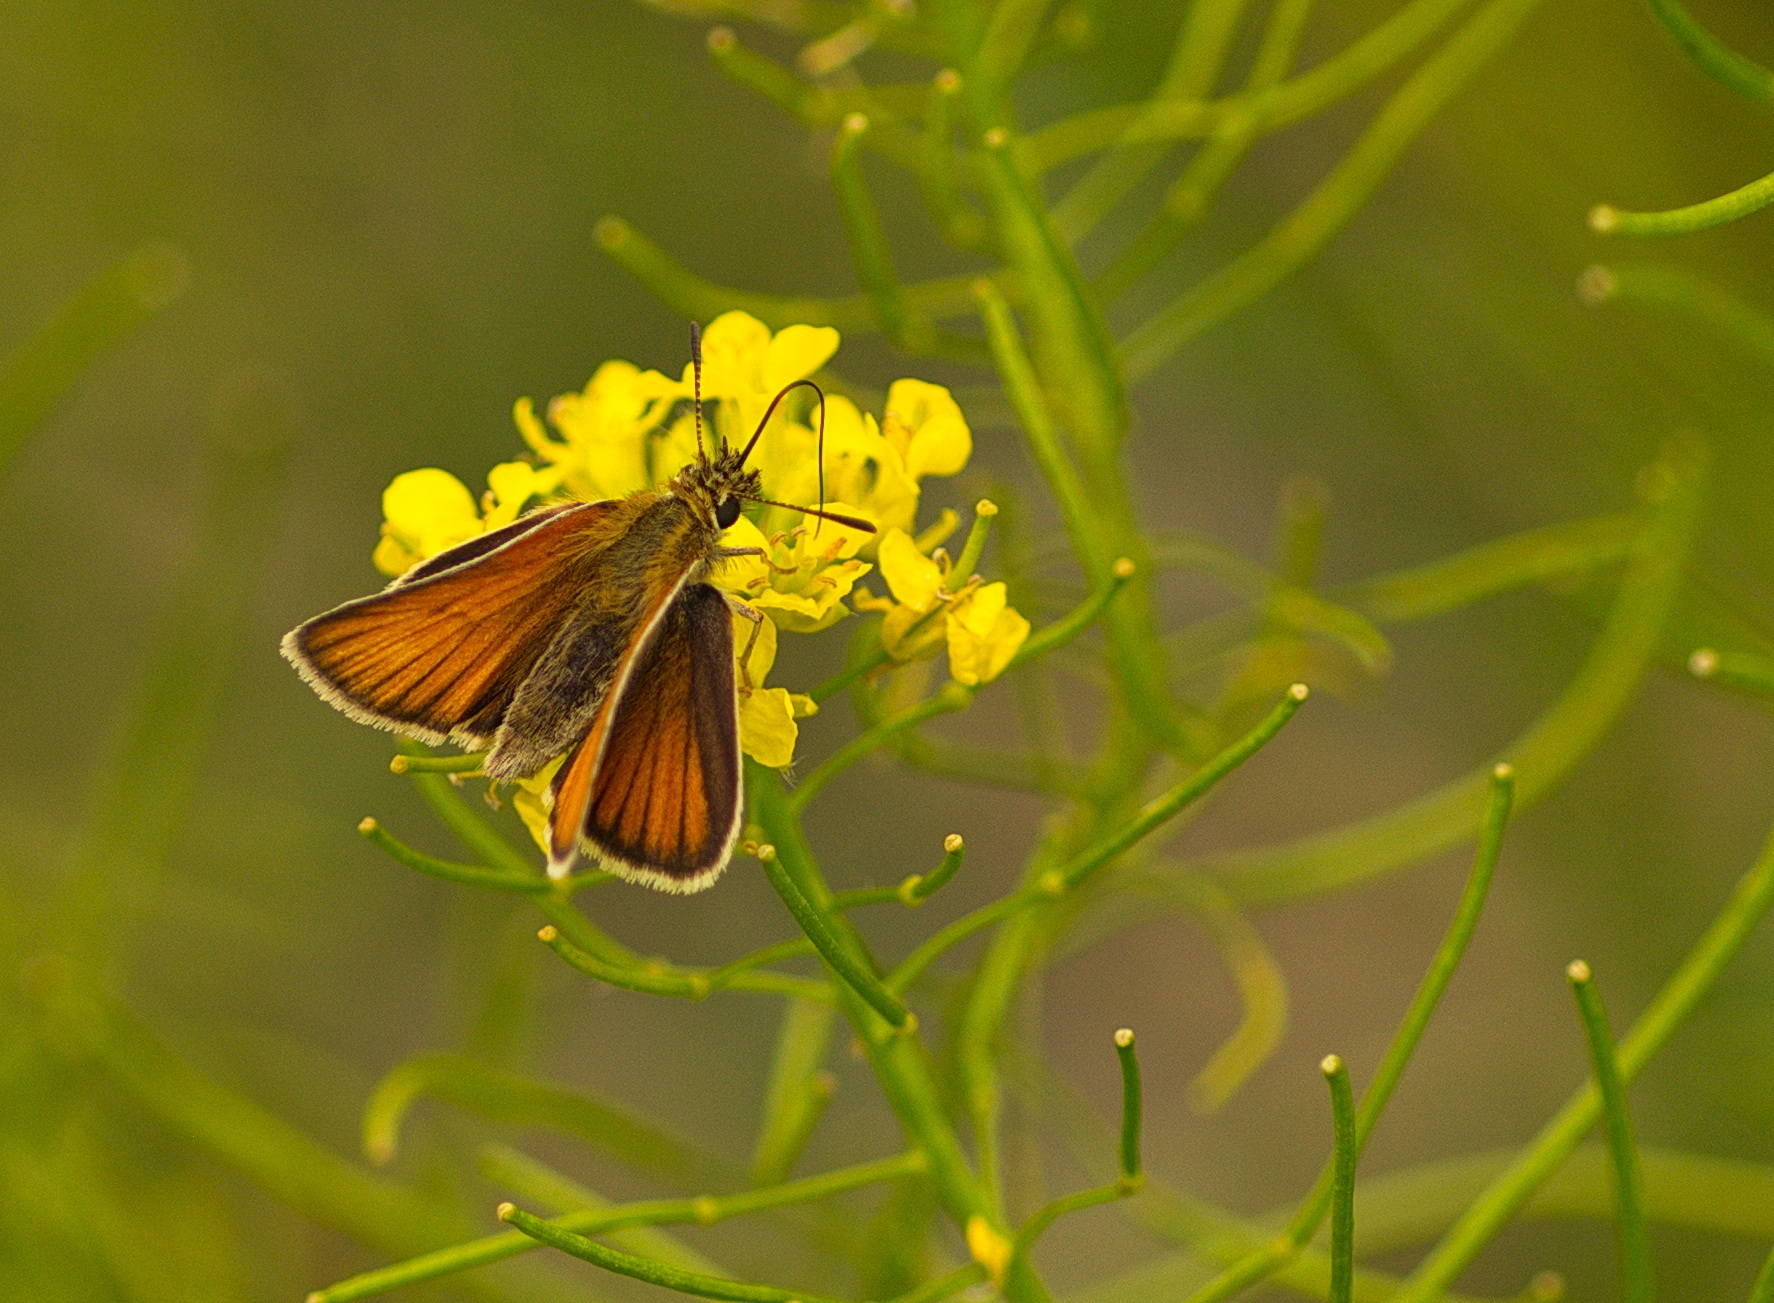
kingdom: Animalia
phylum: Arthropoda
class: Insecta
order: Lepidoptera
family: Hesperiidae
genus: Thymelicus
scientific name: Thymelicus lineola
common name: Essex skipper
